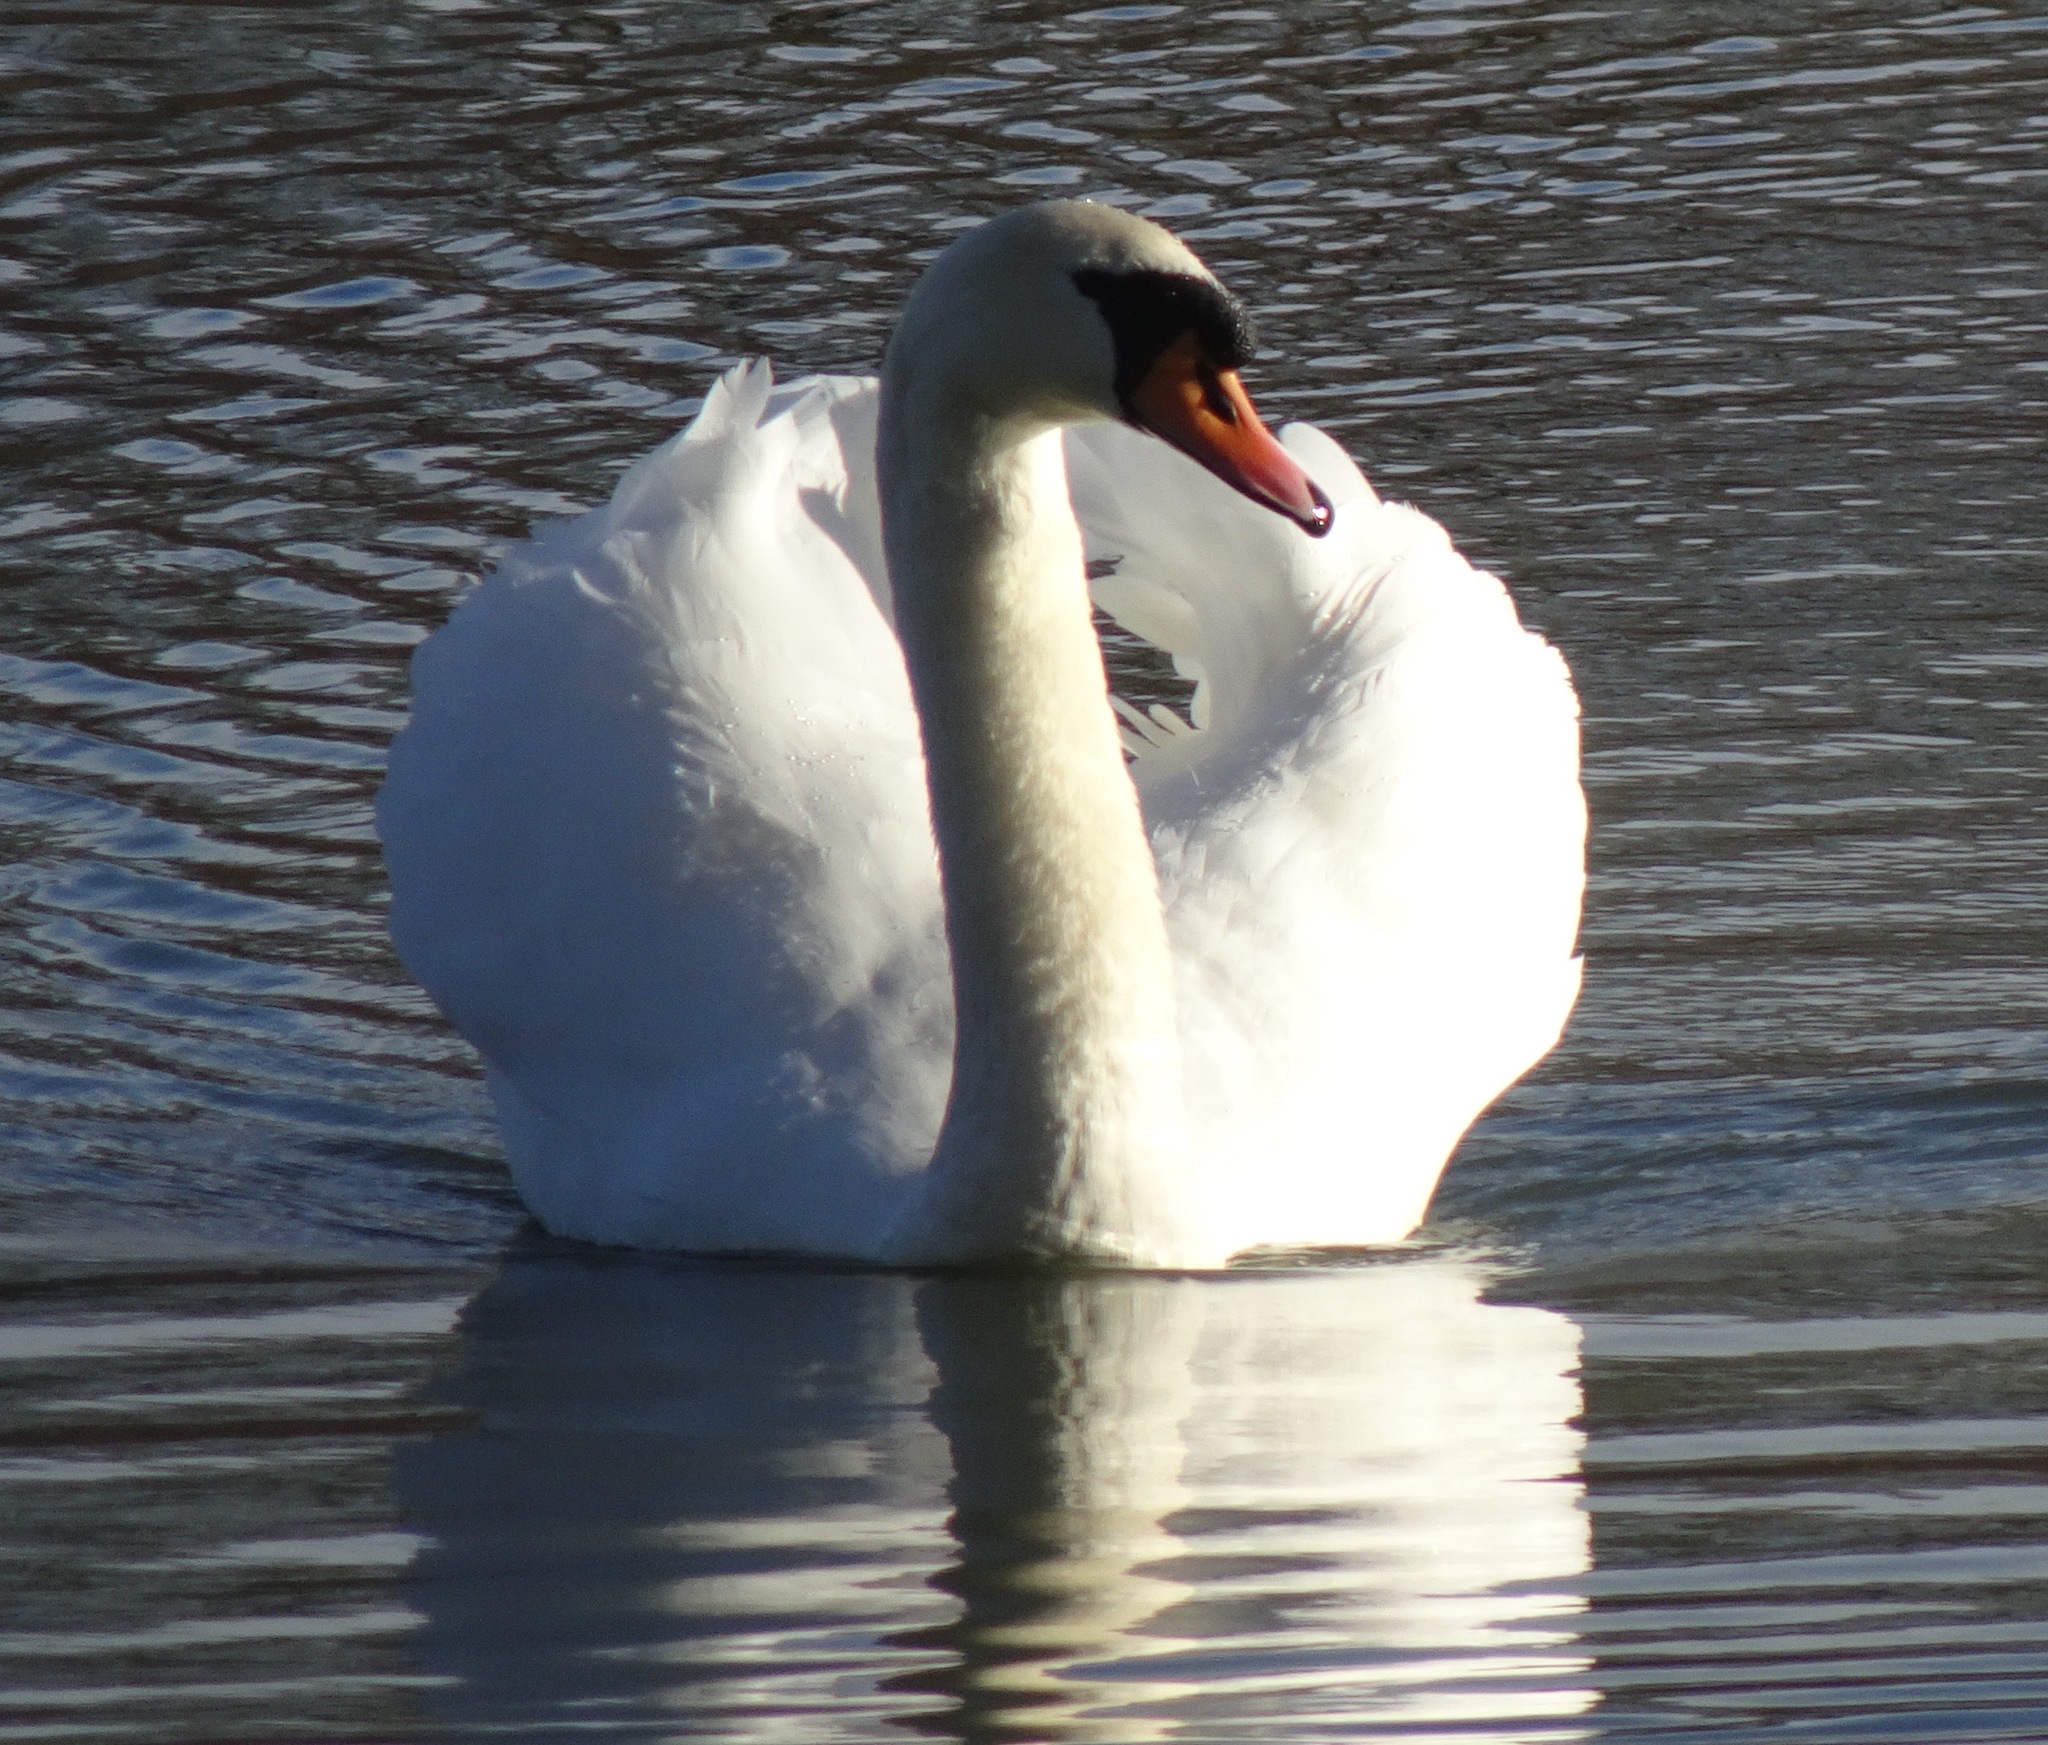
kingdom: Animalia
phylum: Chordata
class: Aves
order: Anseriformes
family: Anatidae
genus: Cygnus
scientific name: Cygnus olor
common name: Mute swan
